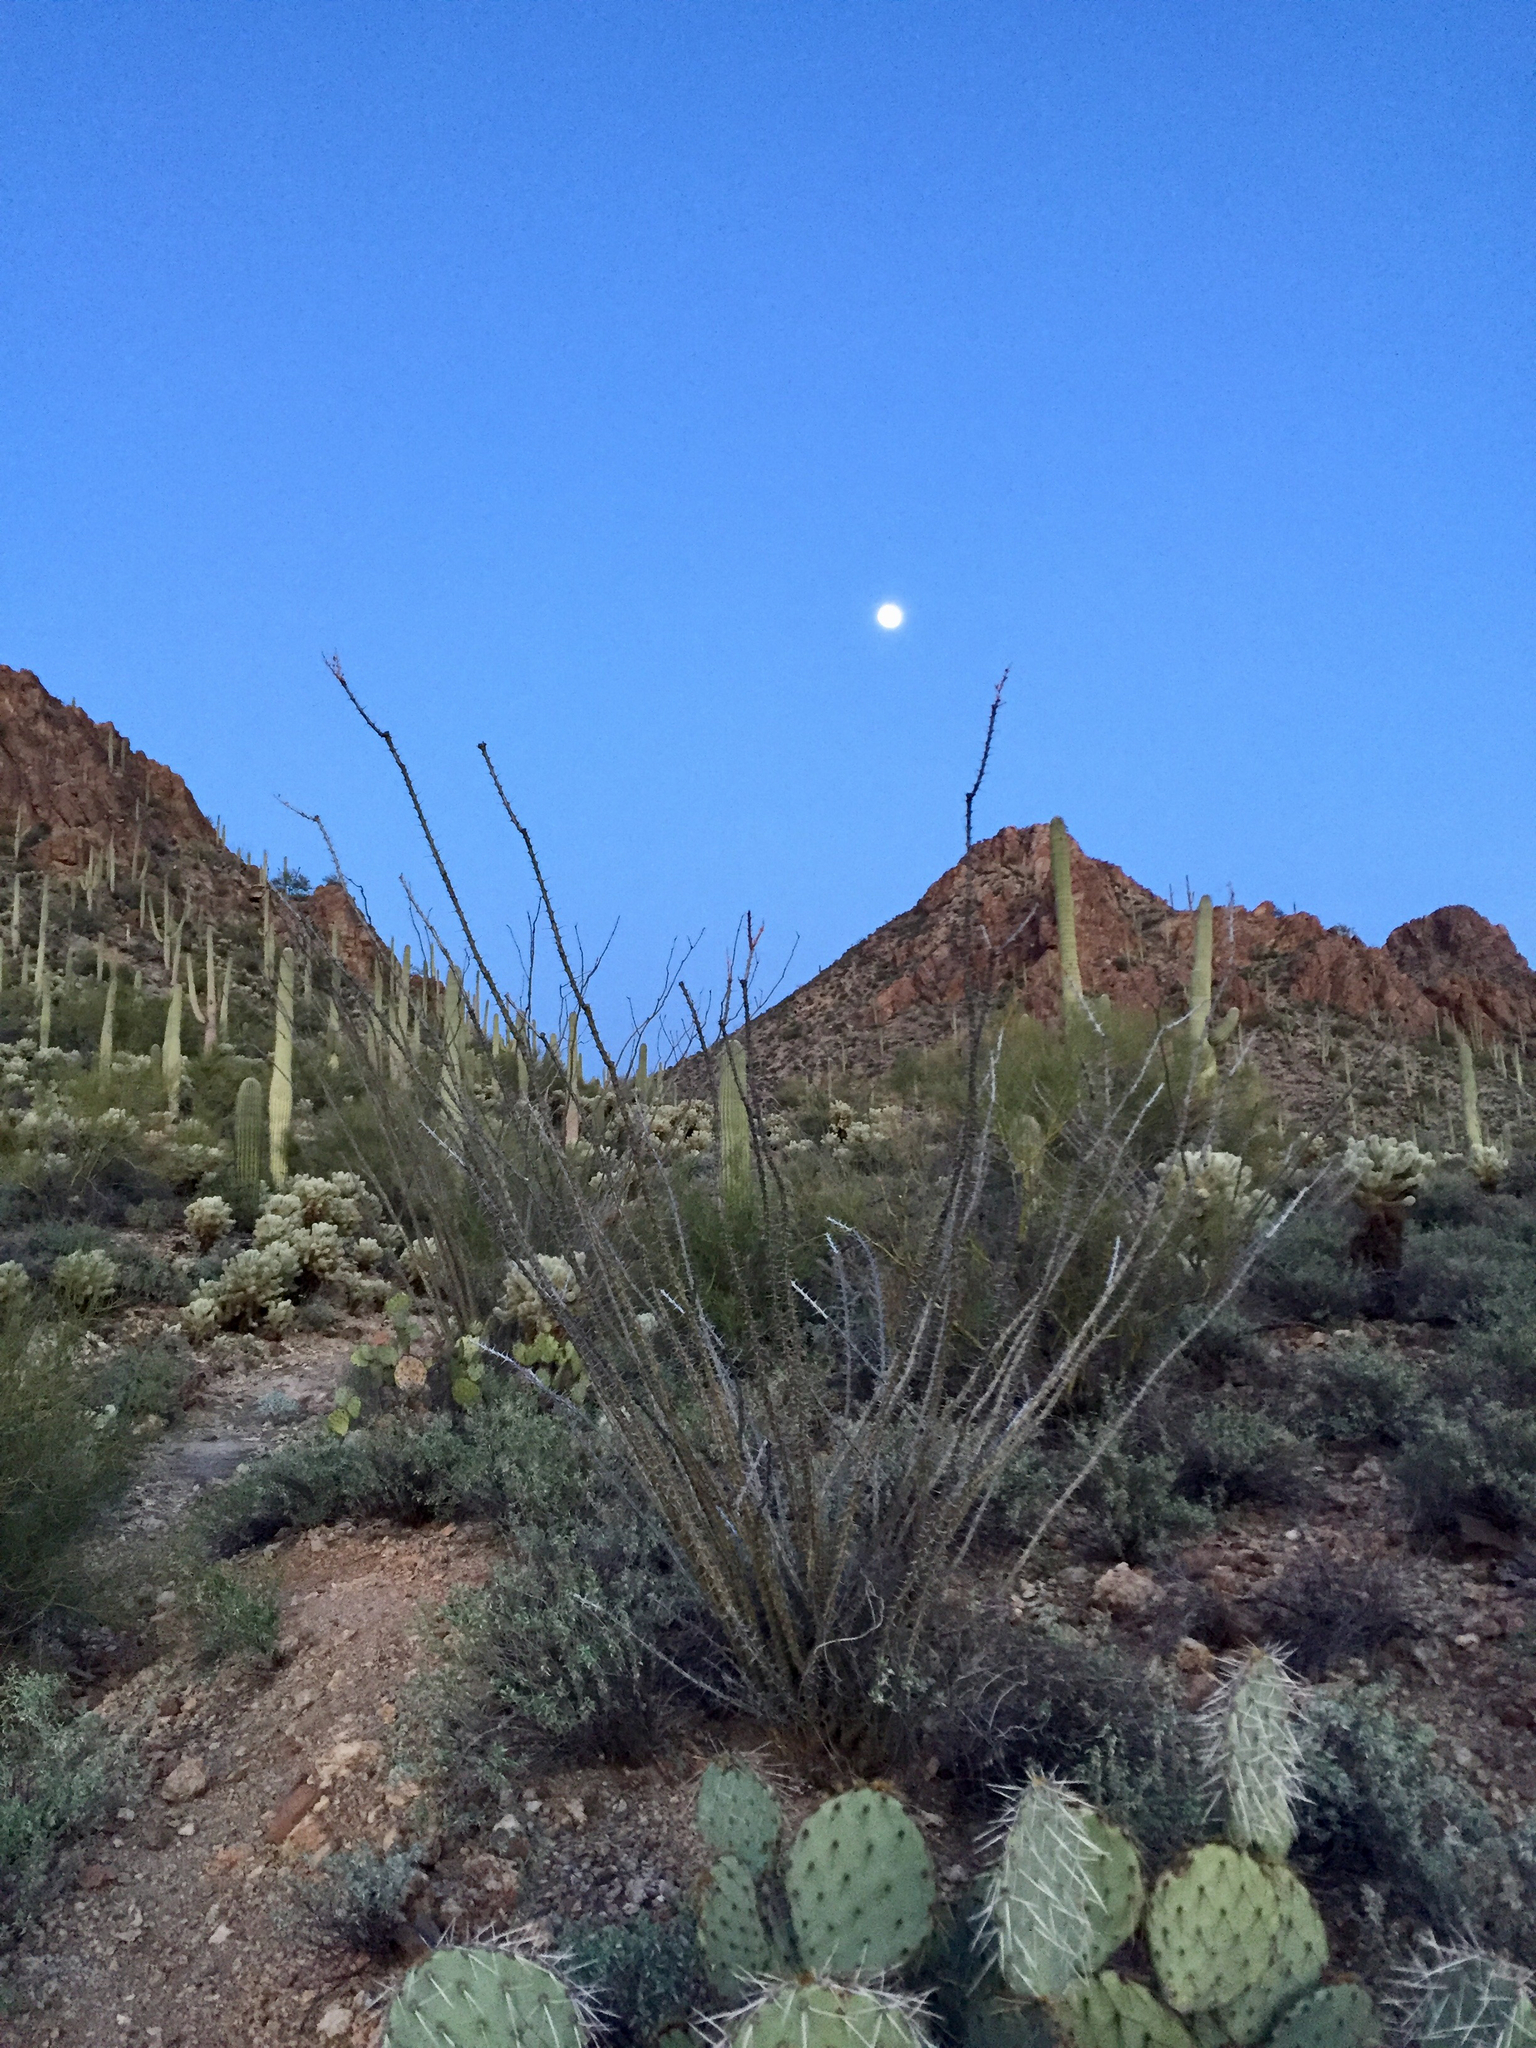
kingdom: Plantae
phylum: Tracheophyta
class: Magnoliopsida
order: Ericales
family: Fouquieriaceae
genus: Fouquieria
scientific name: Fouquieria splendens
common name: Vine-cactus
